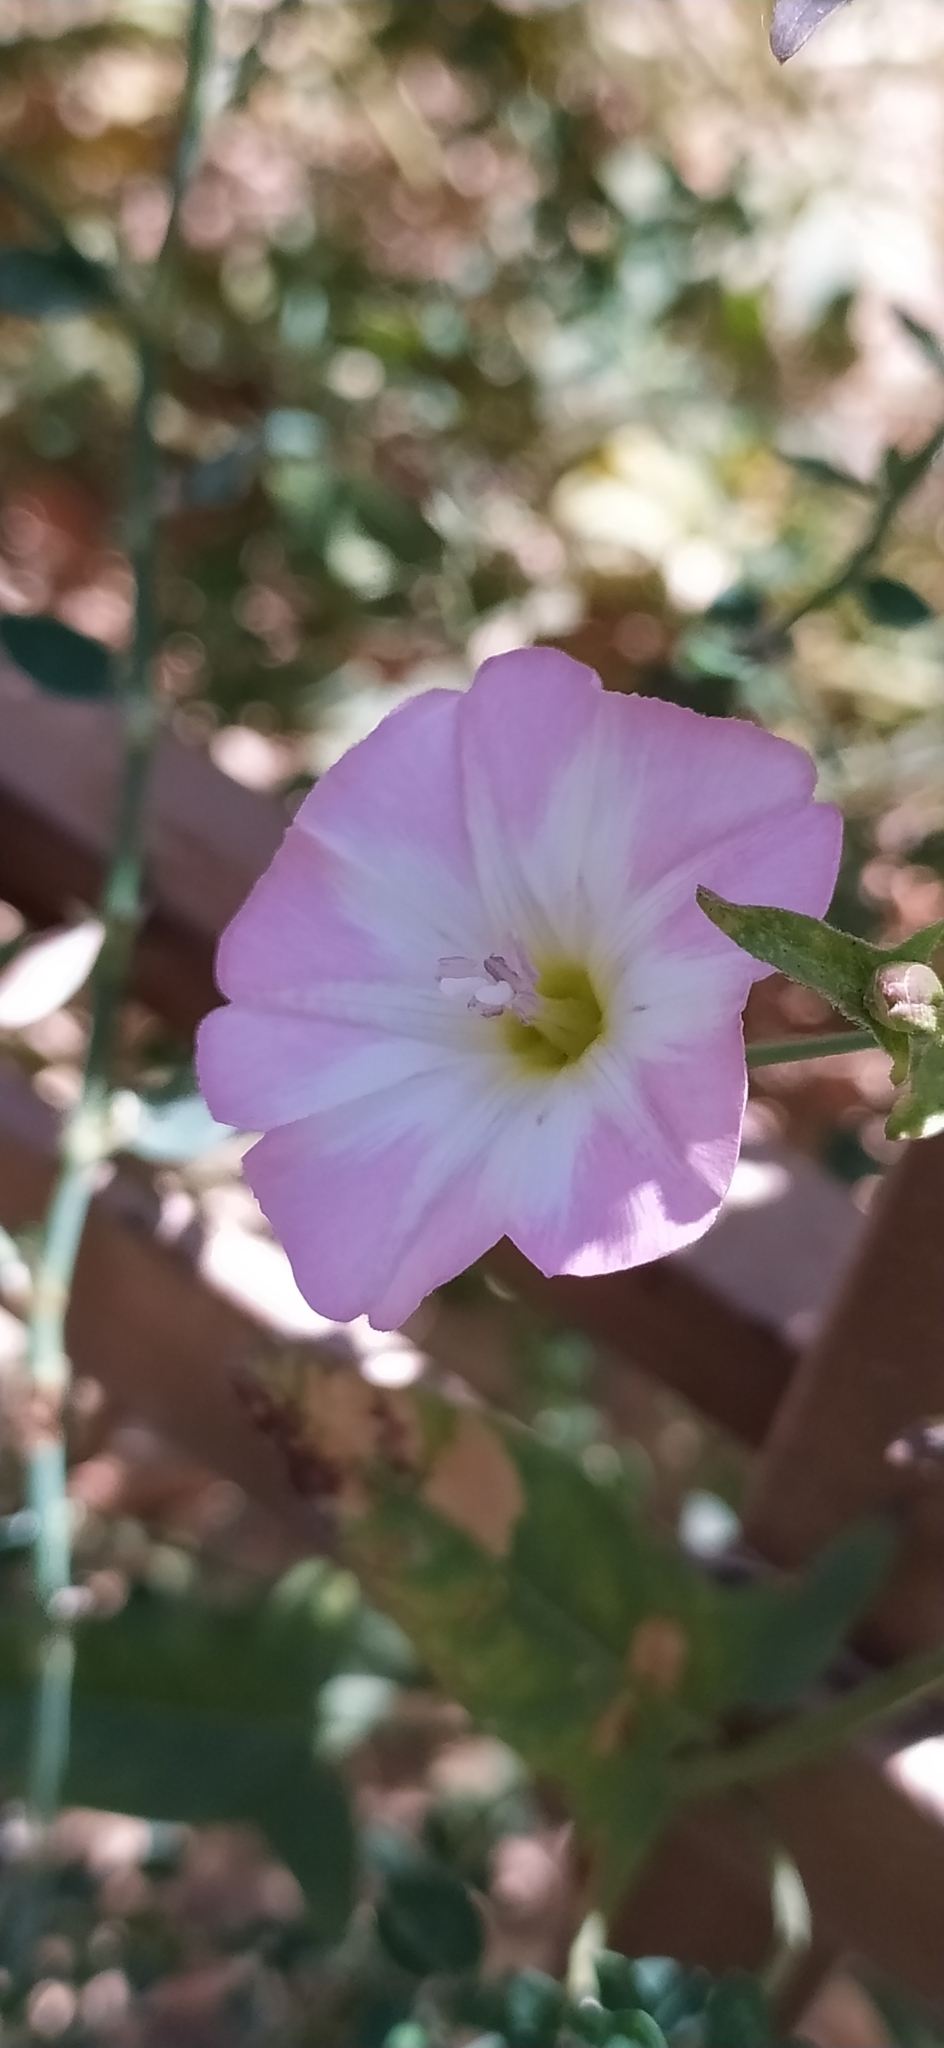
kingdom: Plantae
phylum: Tracheophyta
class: Magnoliopsida
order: Solanales
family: Convolvulaceae
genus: Convolvulus
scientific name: Convolvulus arvensis
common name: Field bindweed
